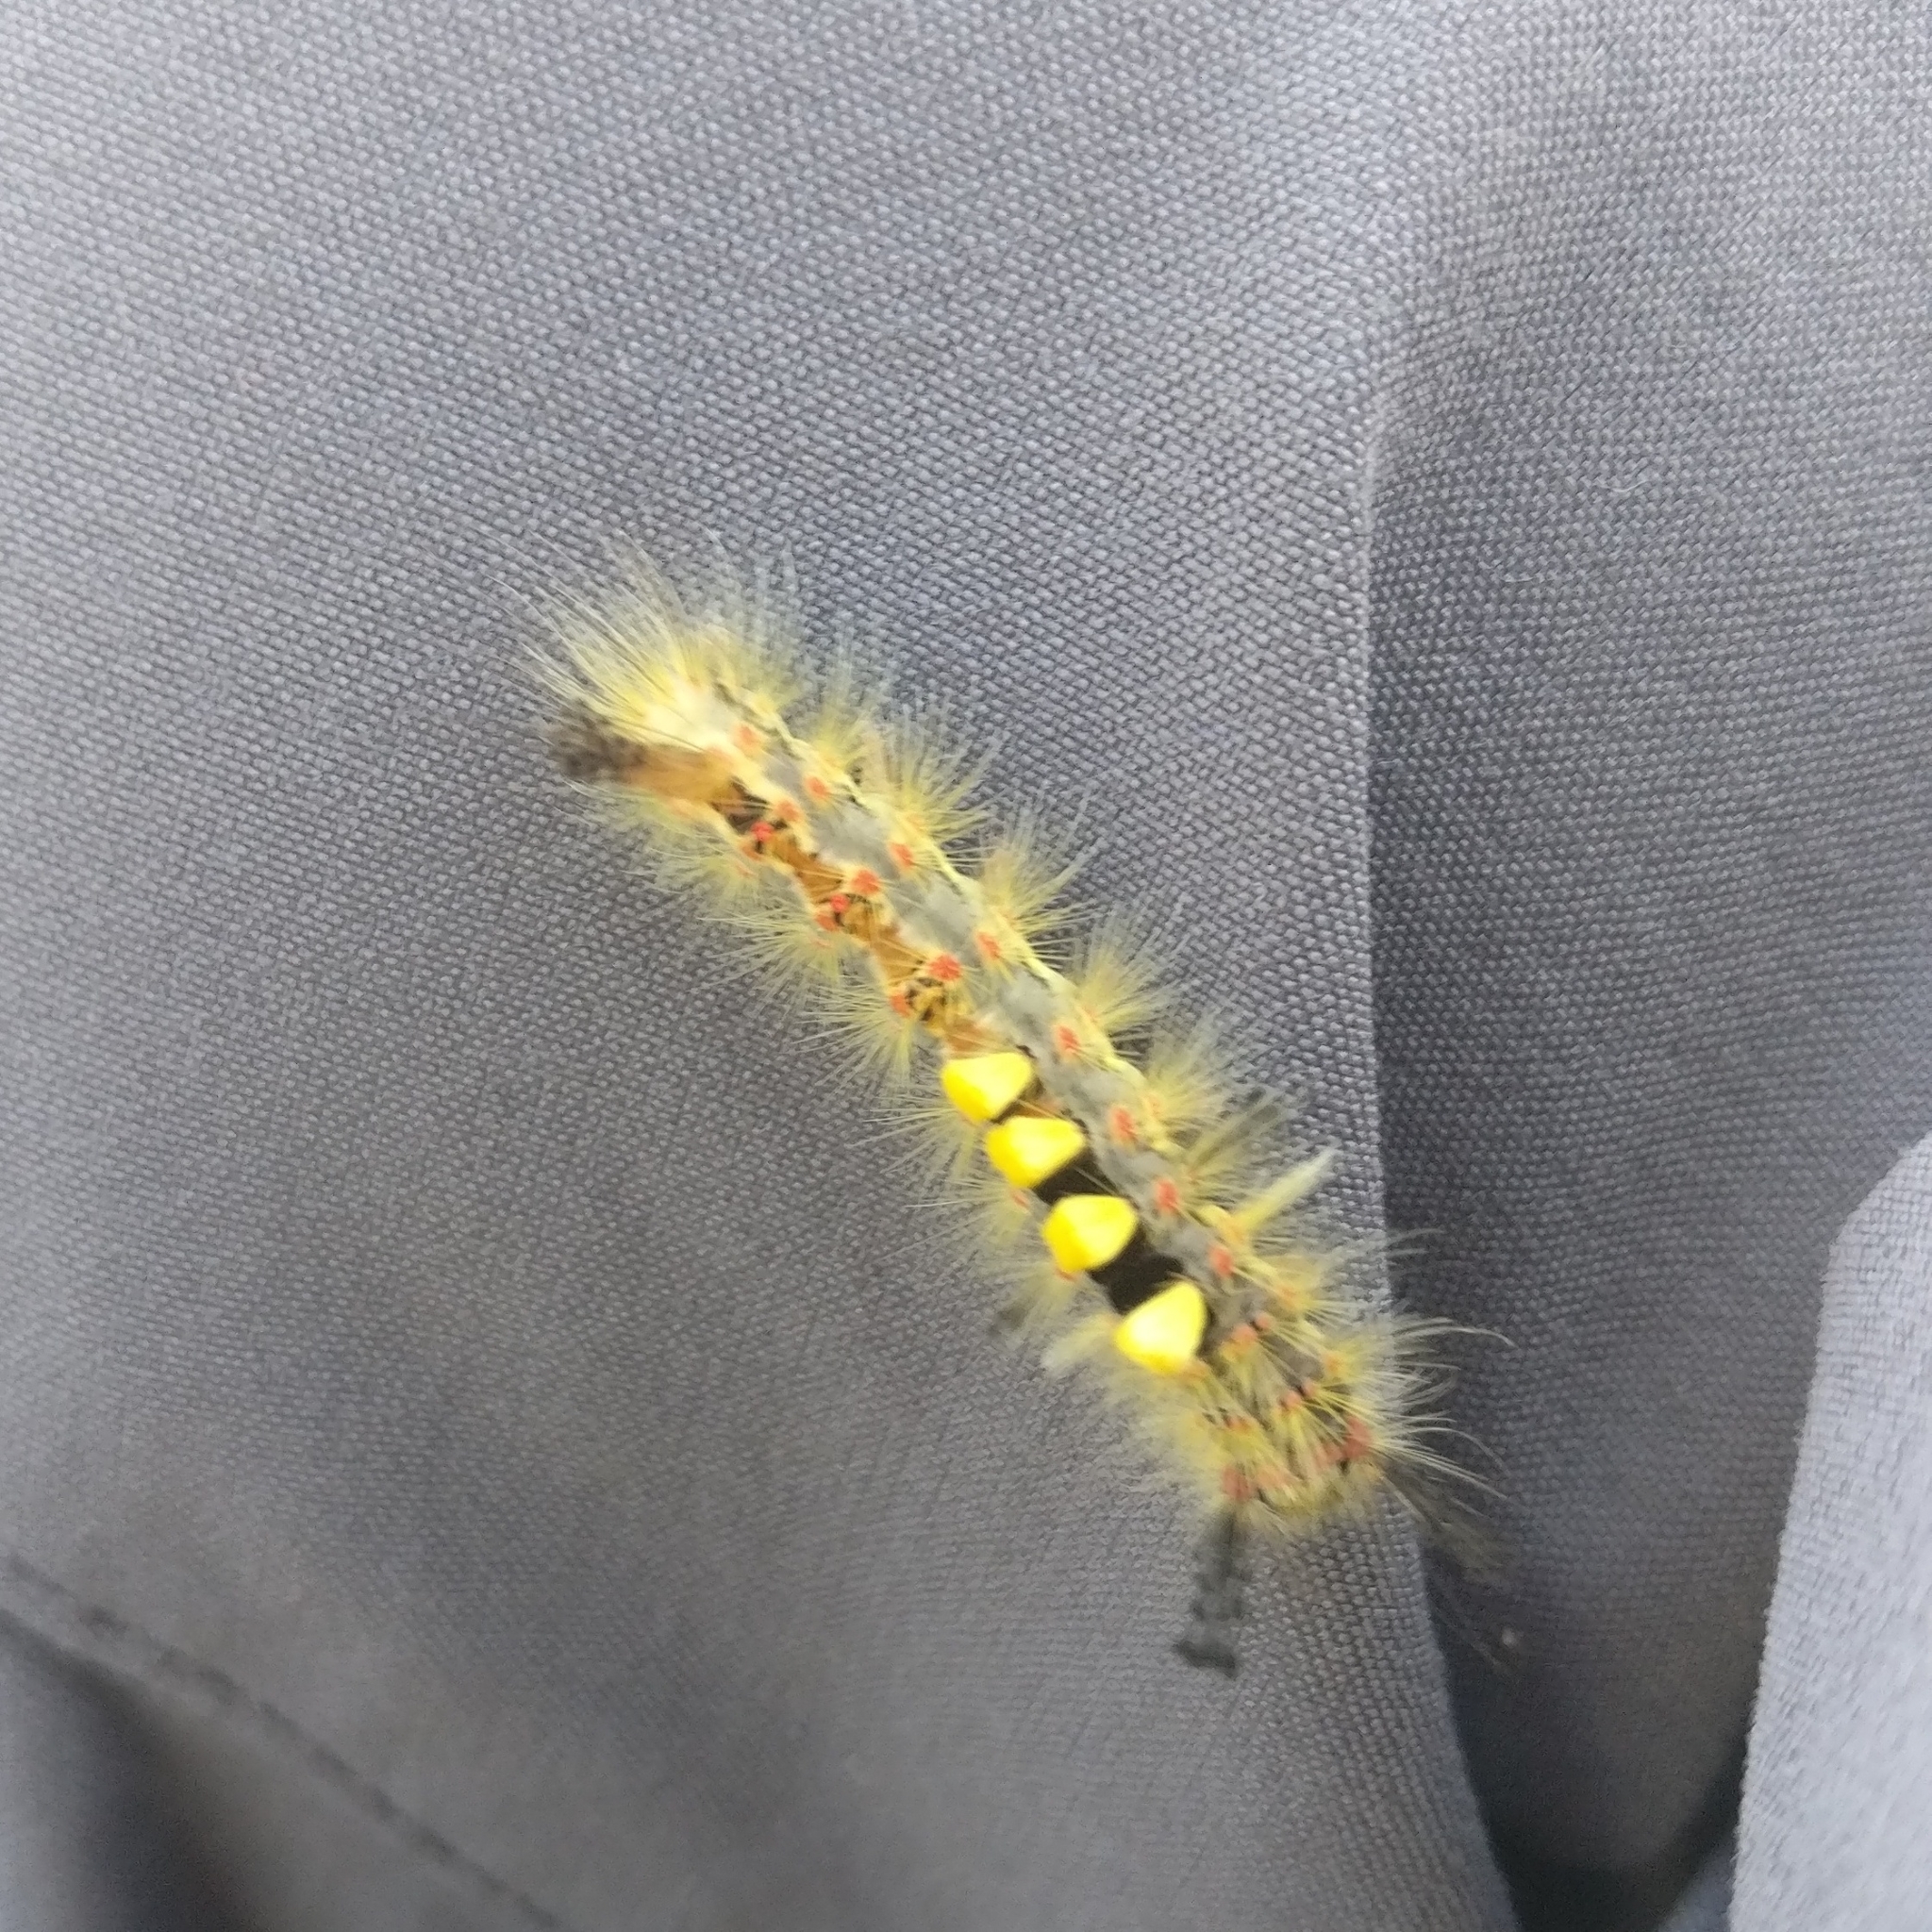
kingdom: Animalia
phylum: Arthropoda
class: Insecta
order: Lepidoptera
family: Erebidae
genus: Orgyia
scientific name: Orgyia antiqua
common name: Vapourer
